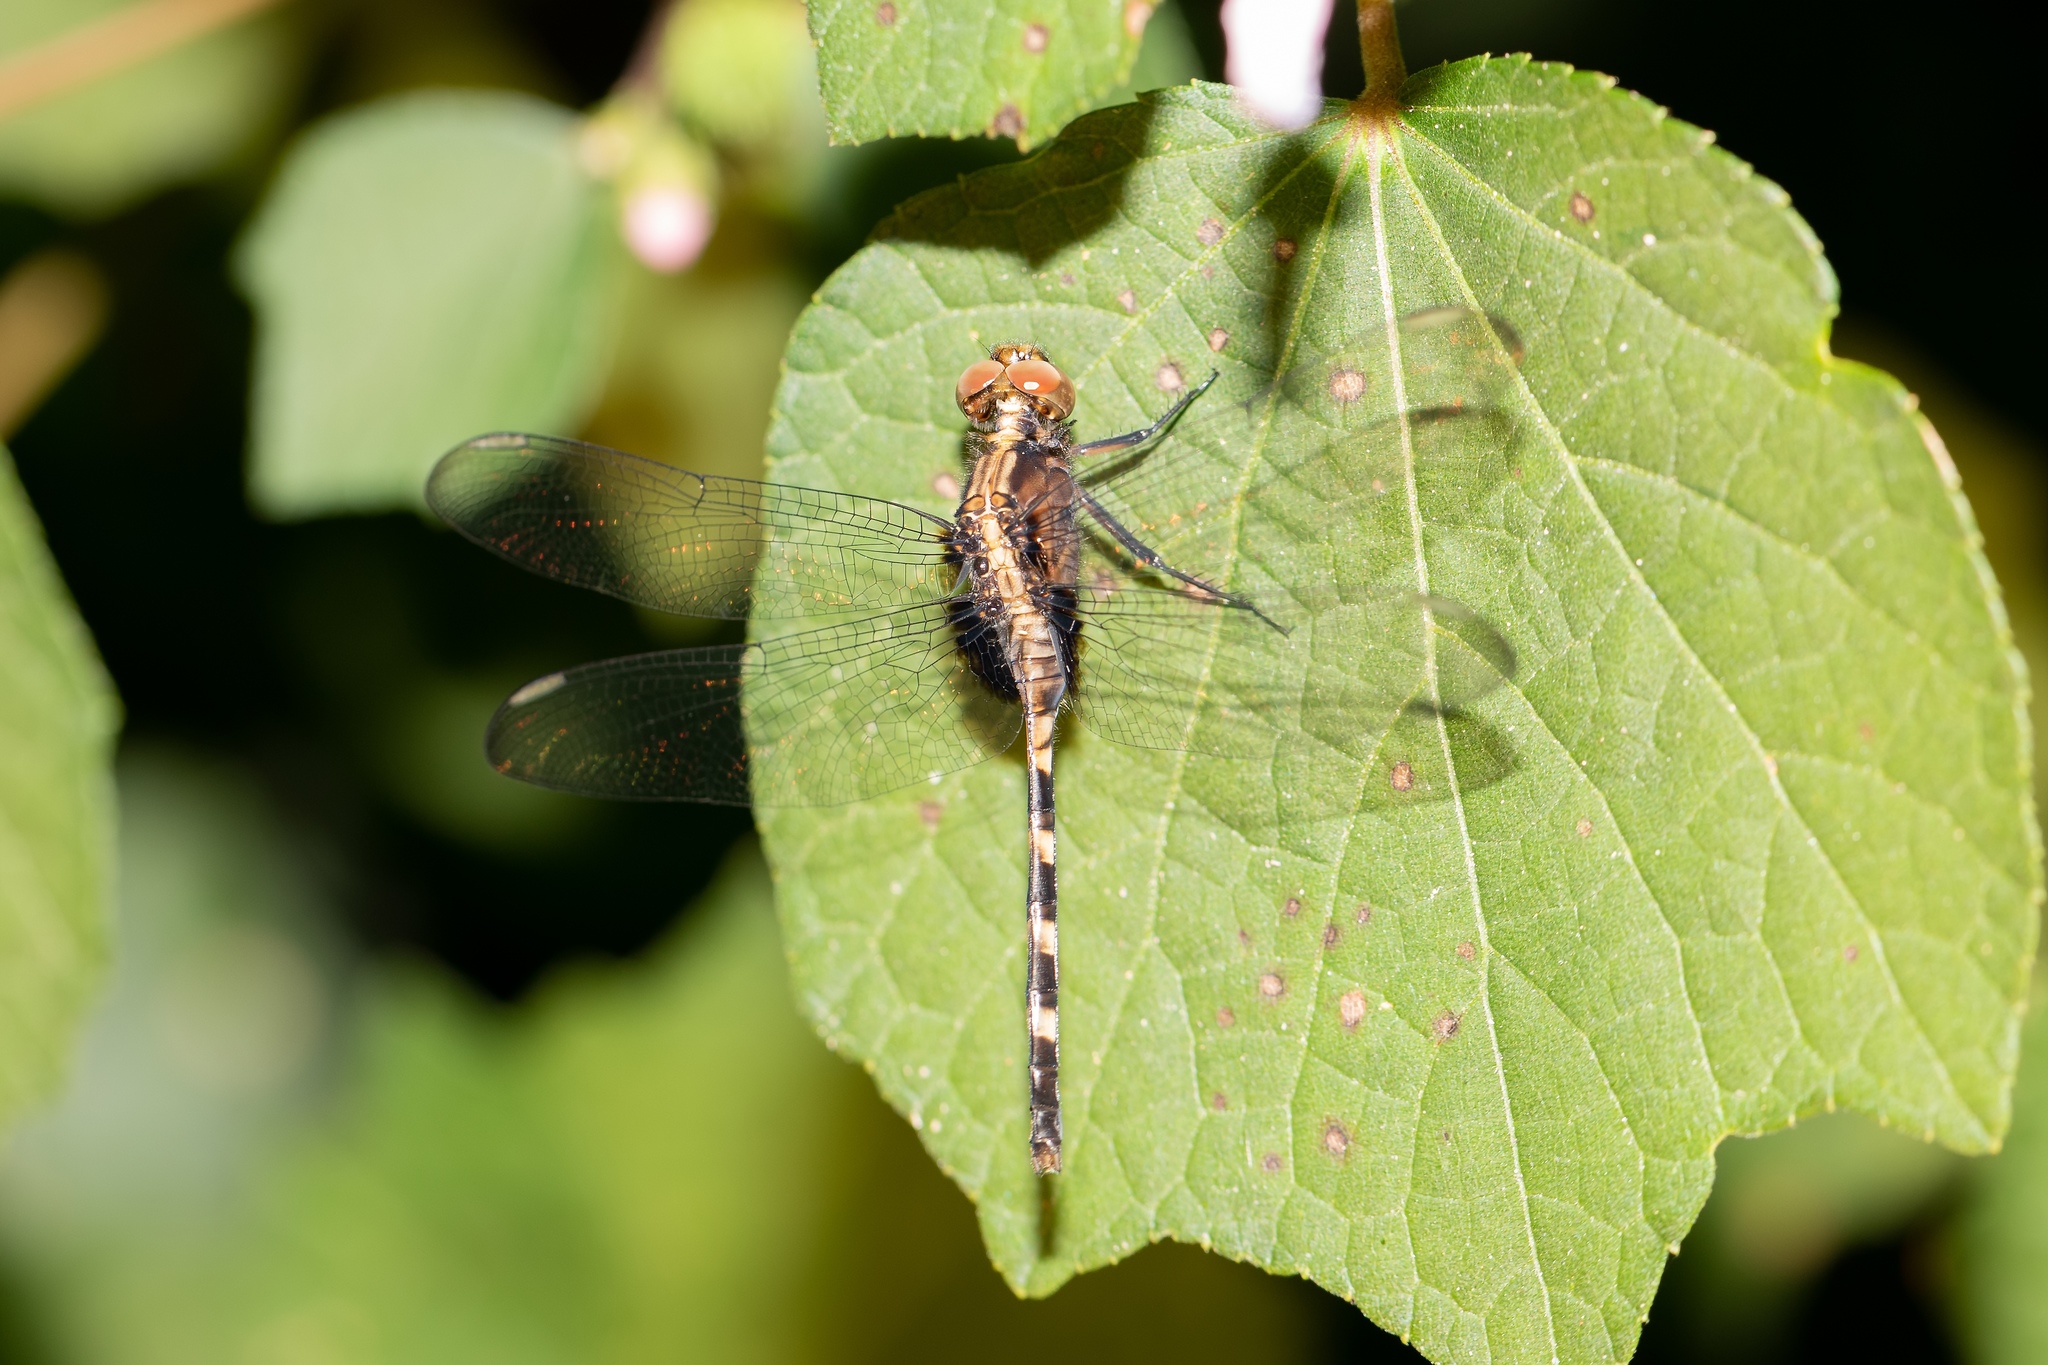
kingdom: Animalia
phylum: Arthropoda
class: Insecta
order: Odonata
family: Libellulidae
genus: Erythemis
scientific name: Erythemis plebeja
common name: Pin-tailed pondhawk
